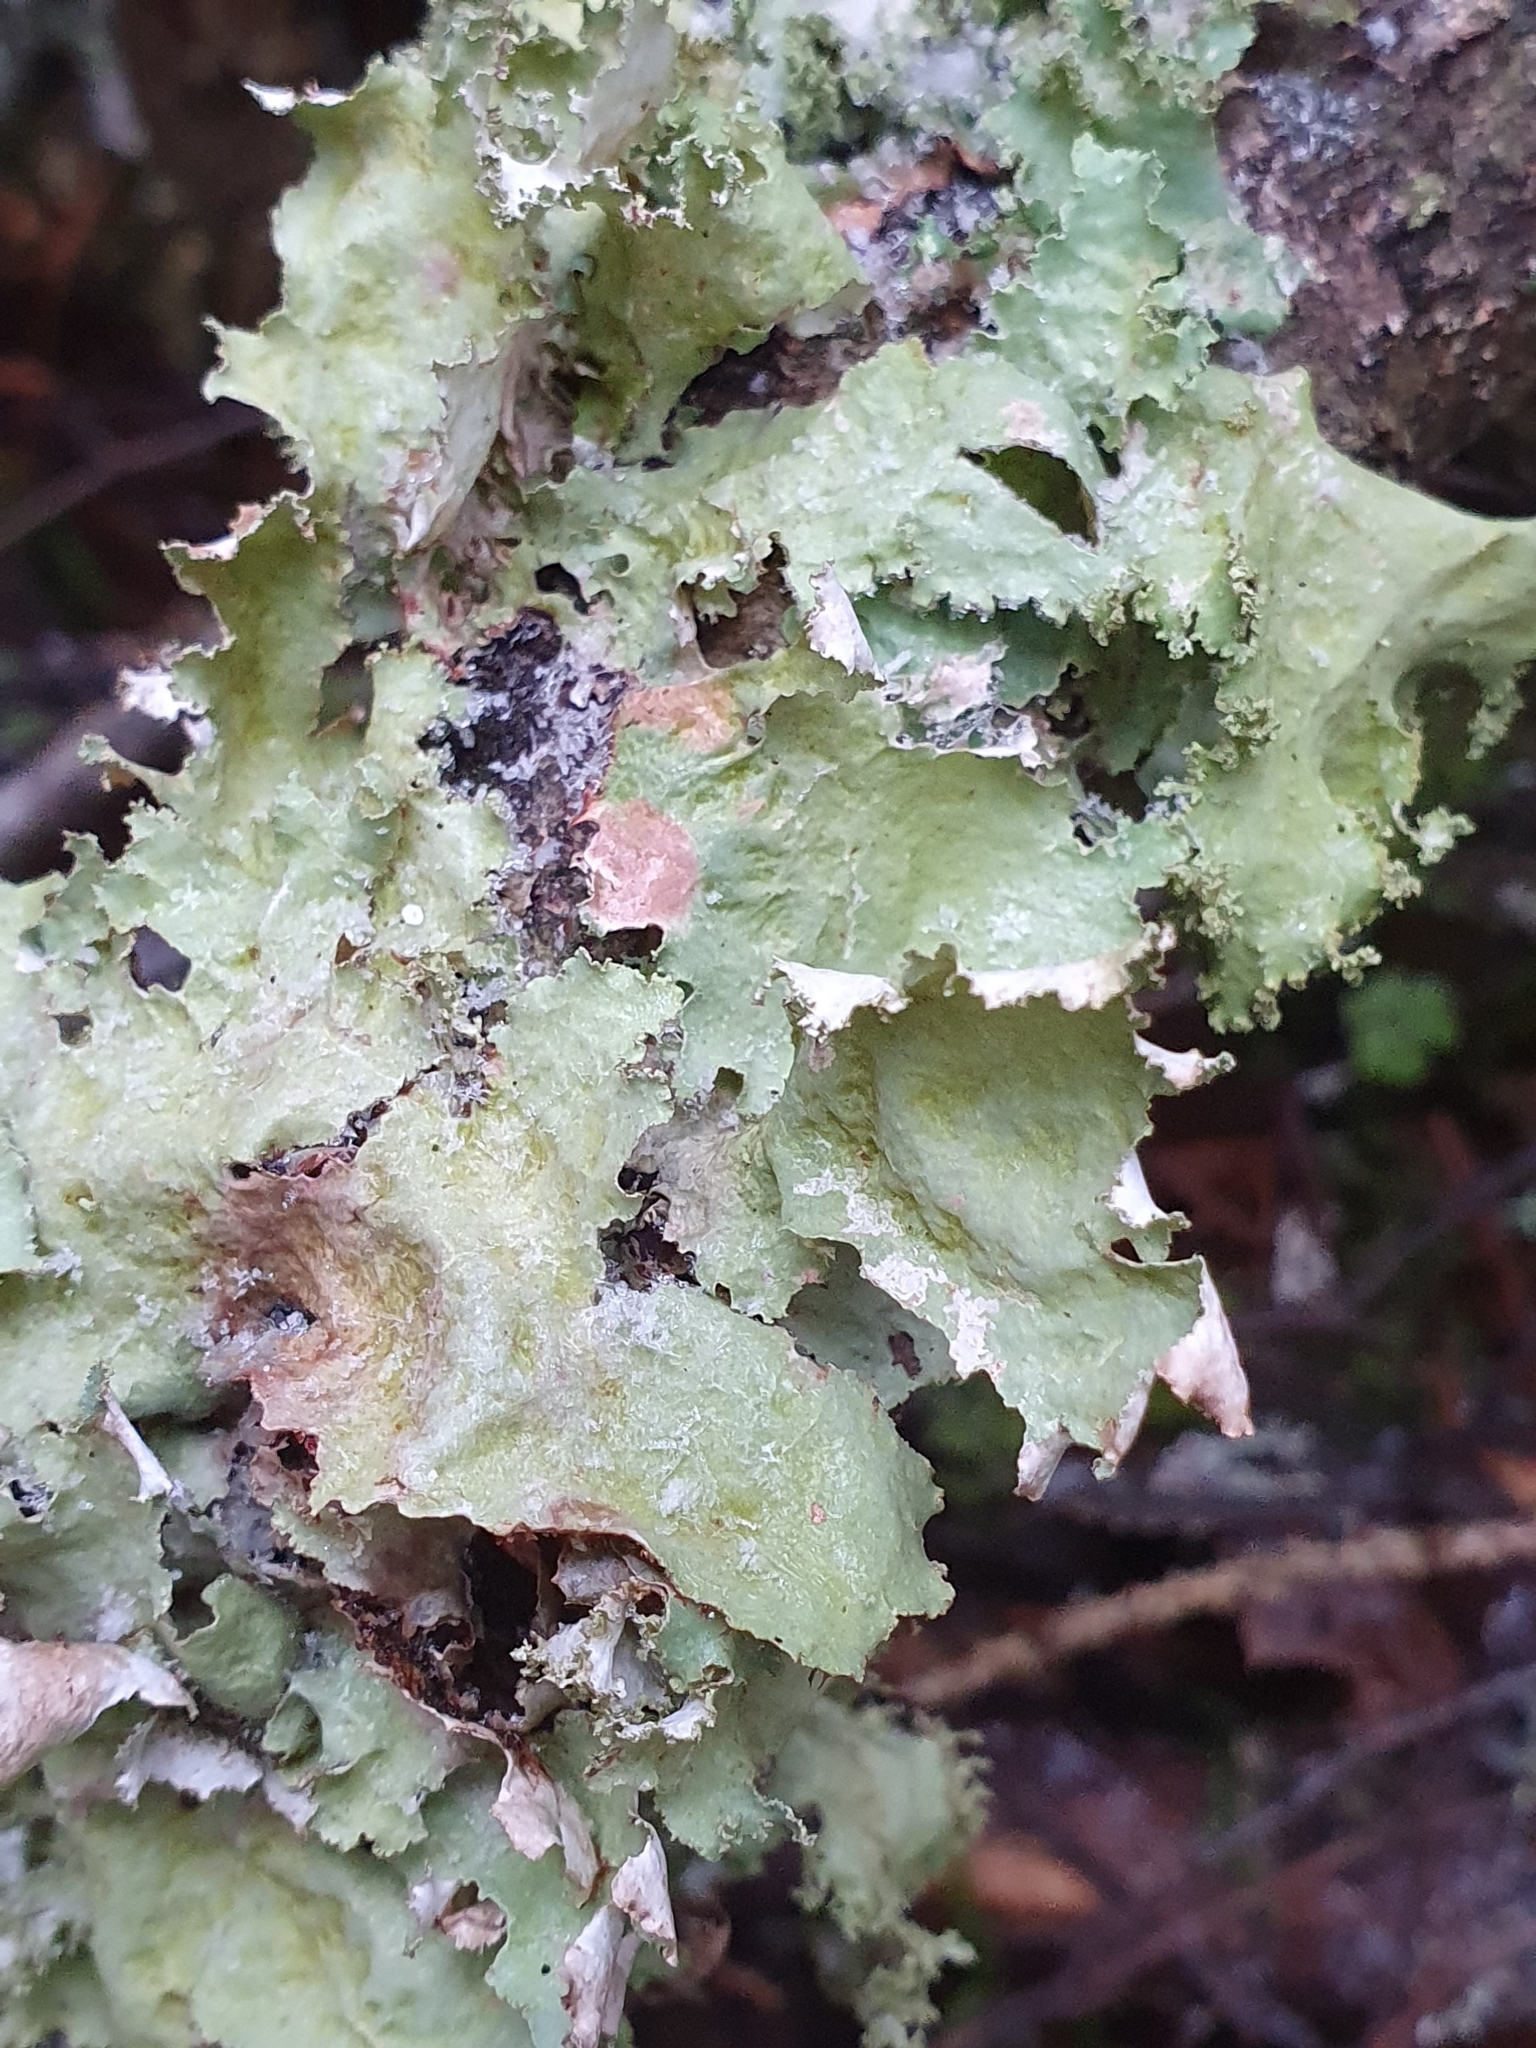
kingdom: Fungi
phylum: Ascomycota
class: Lecanoromycetes
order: Lecanorales
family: Parmeliaceae
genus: Platismatia
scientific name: Platismatia glauca
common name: Varied rag lichen
